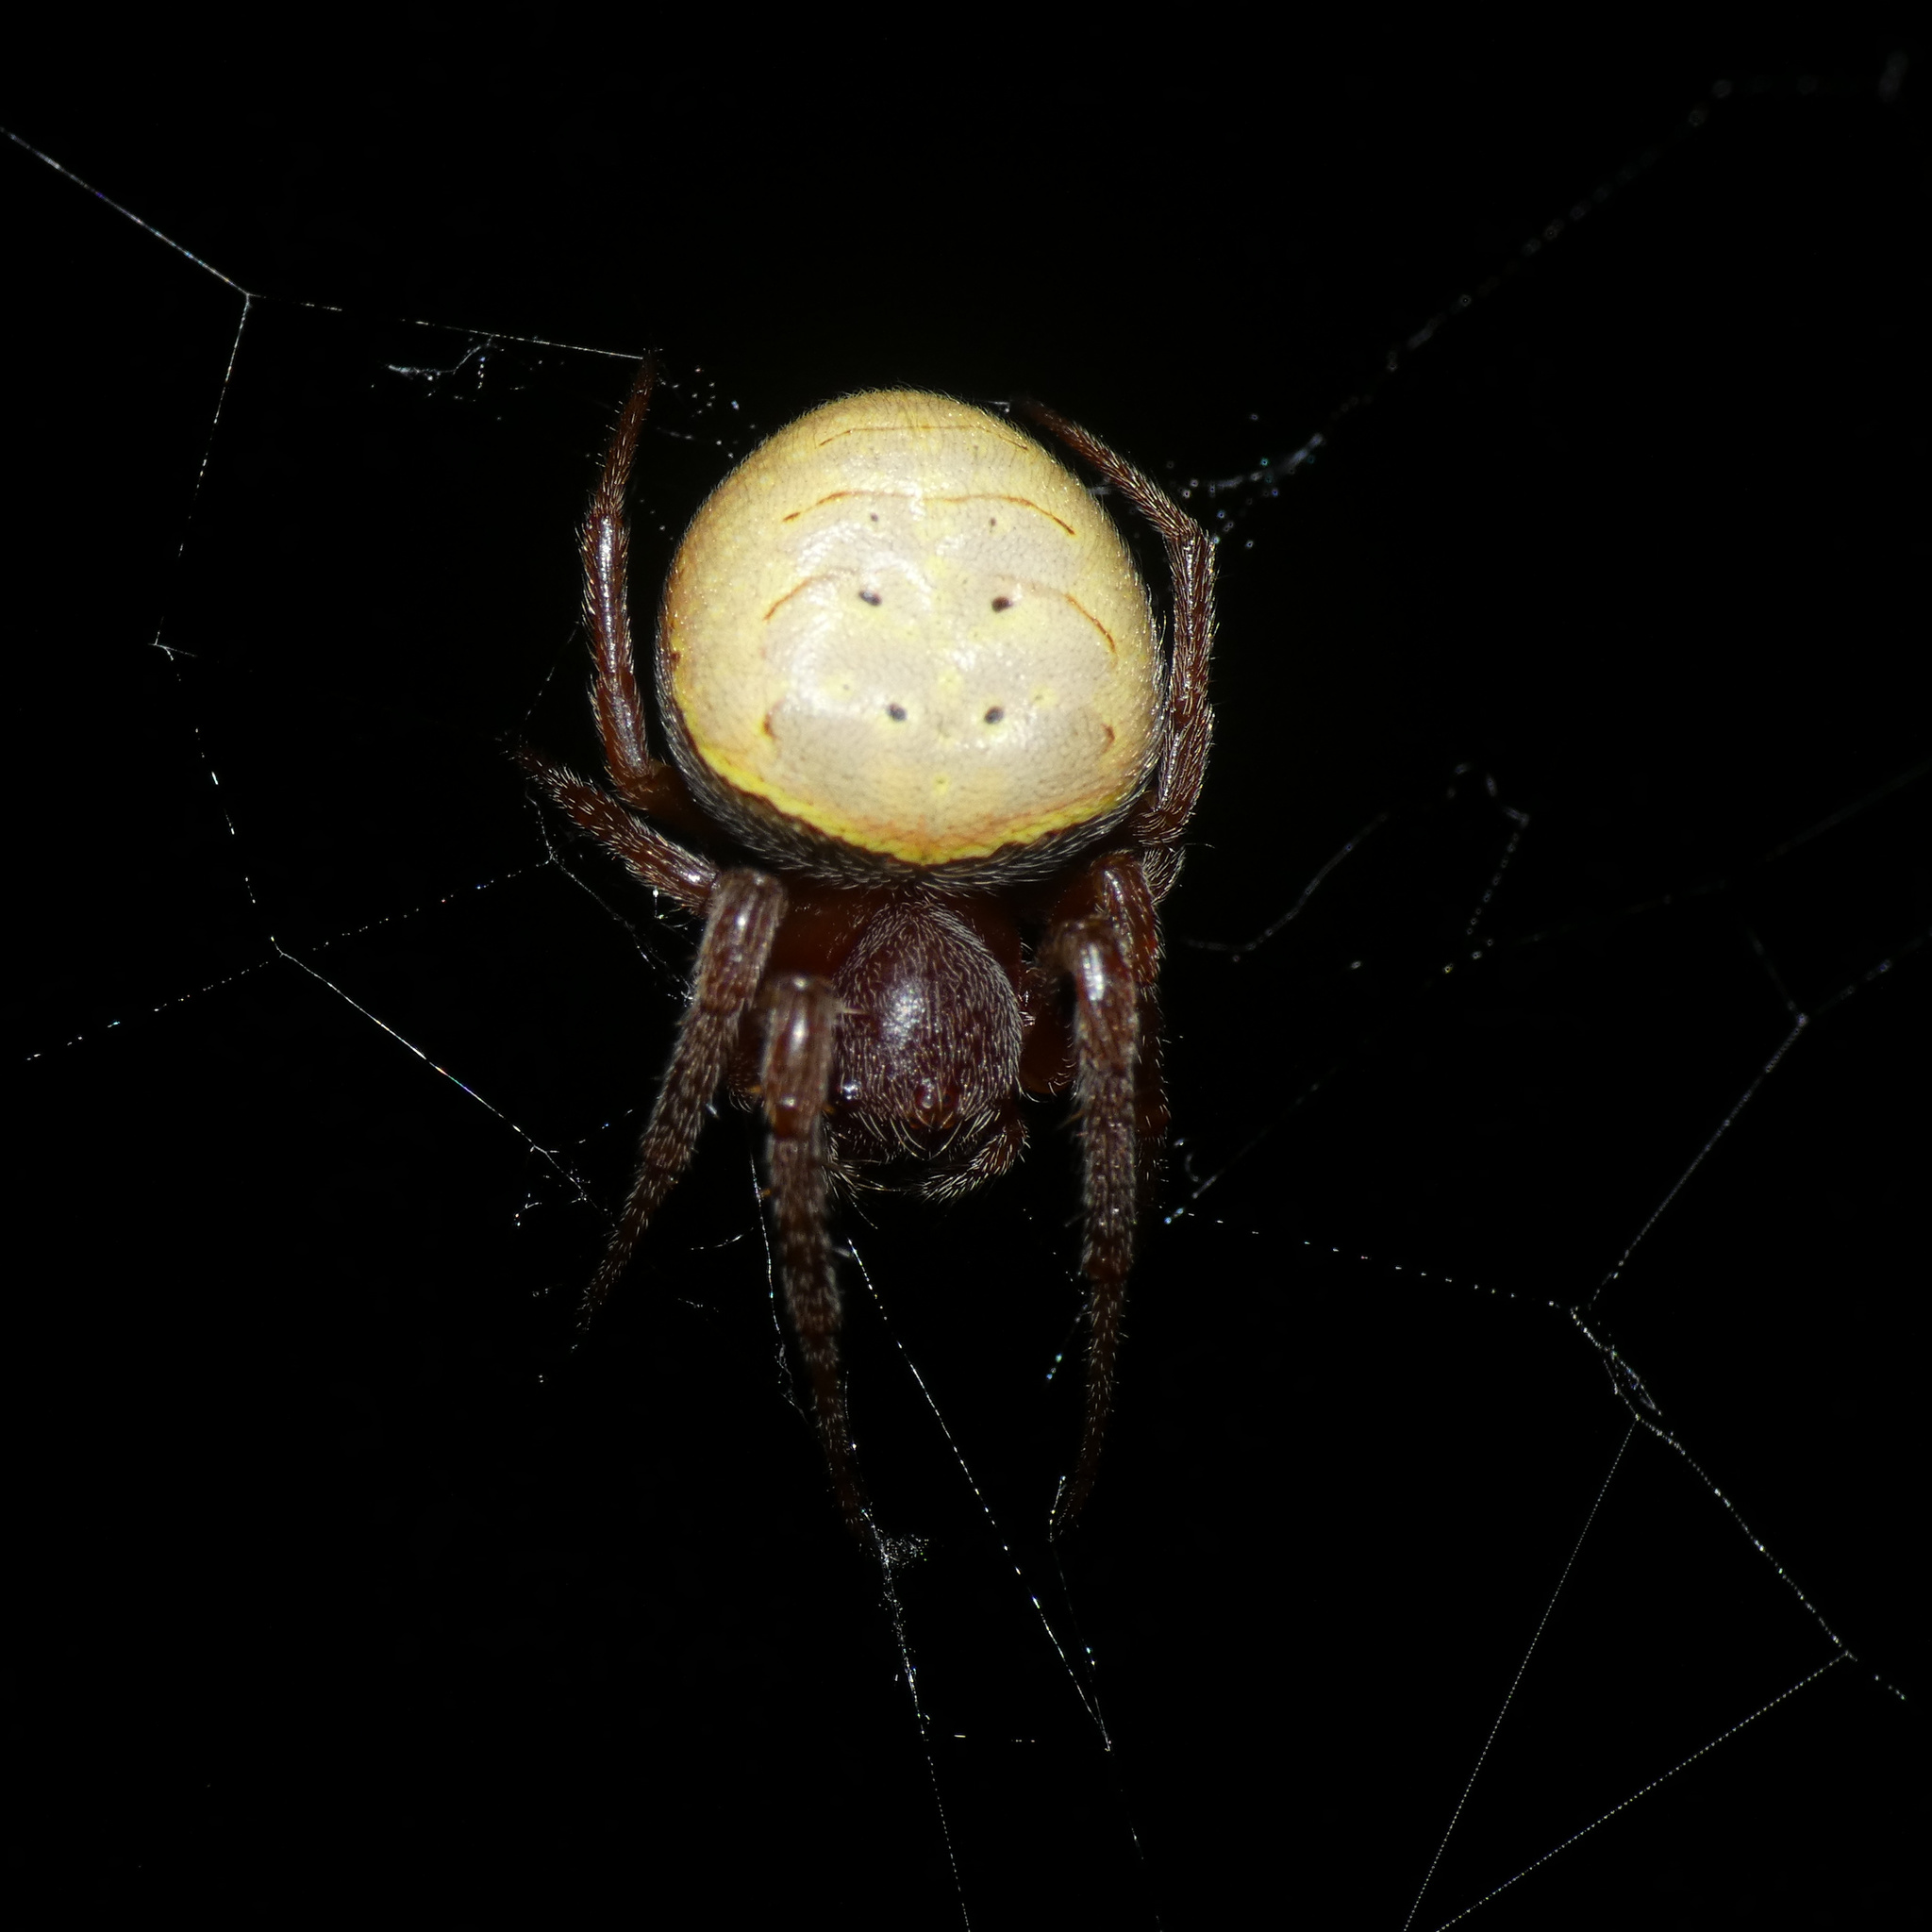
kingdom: Animalia
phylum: Arthropoda
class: Arachnida
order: Araneae
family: Araneidae
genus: Araneus
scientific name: Araneus apricus
